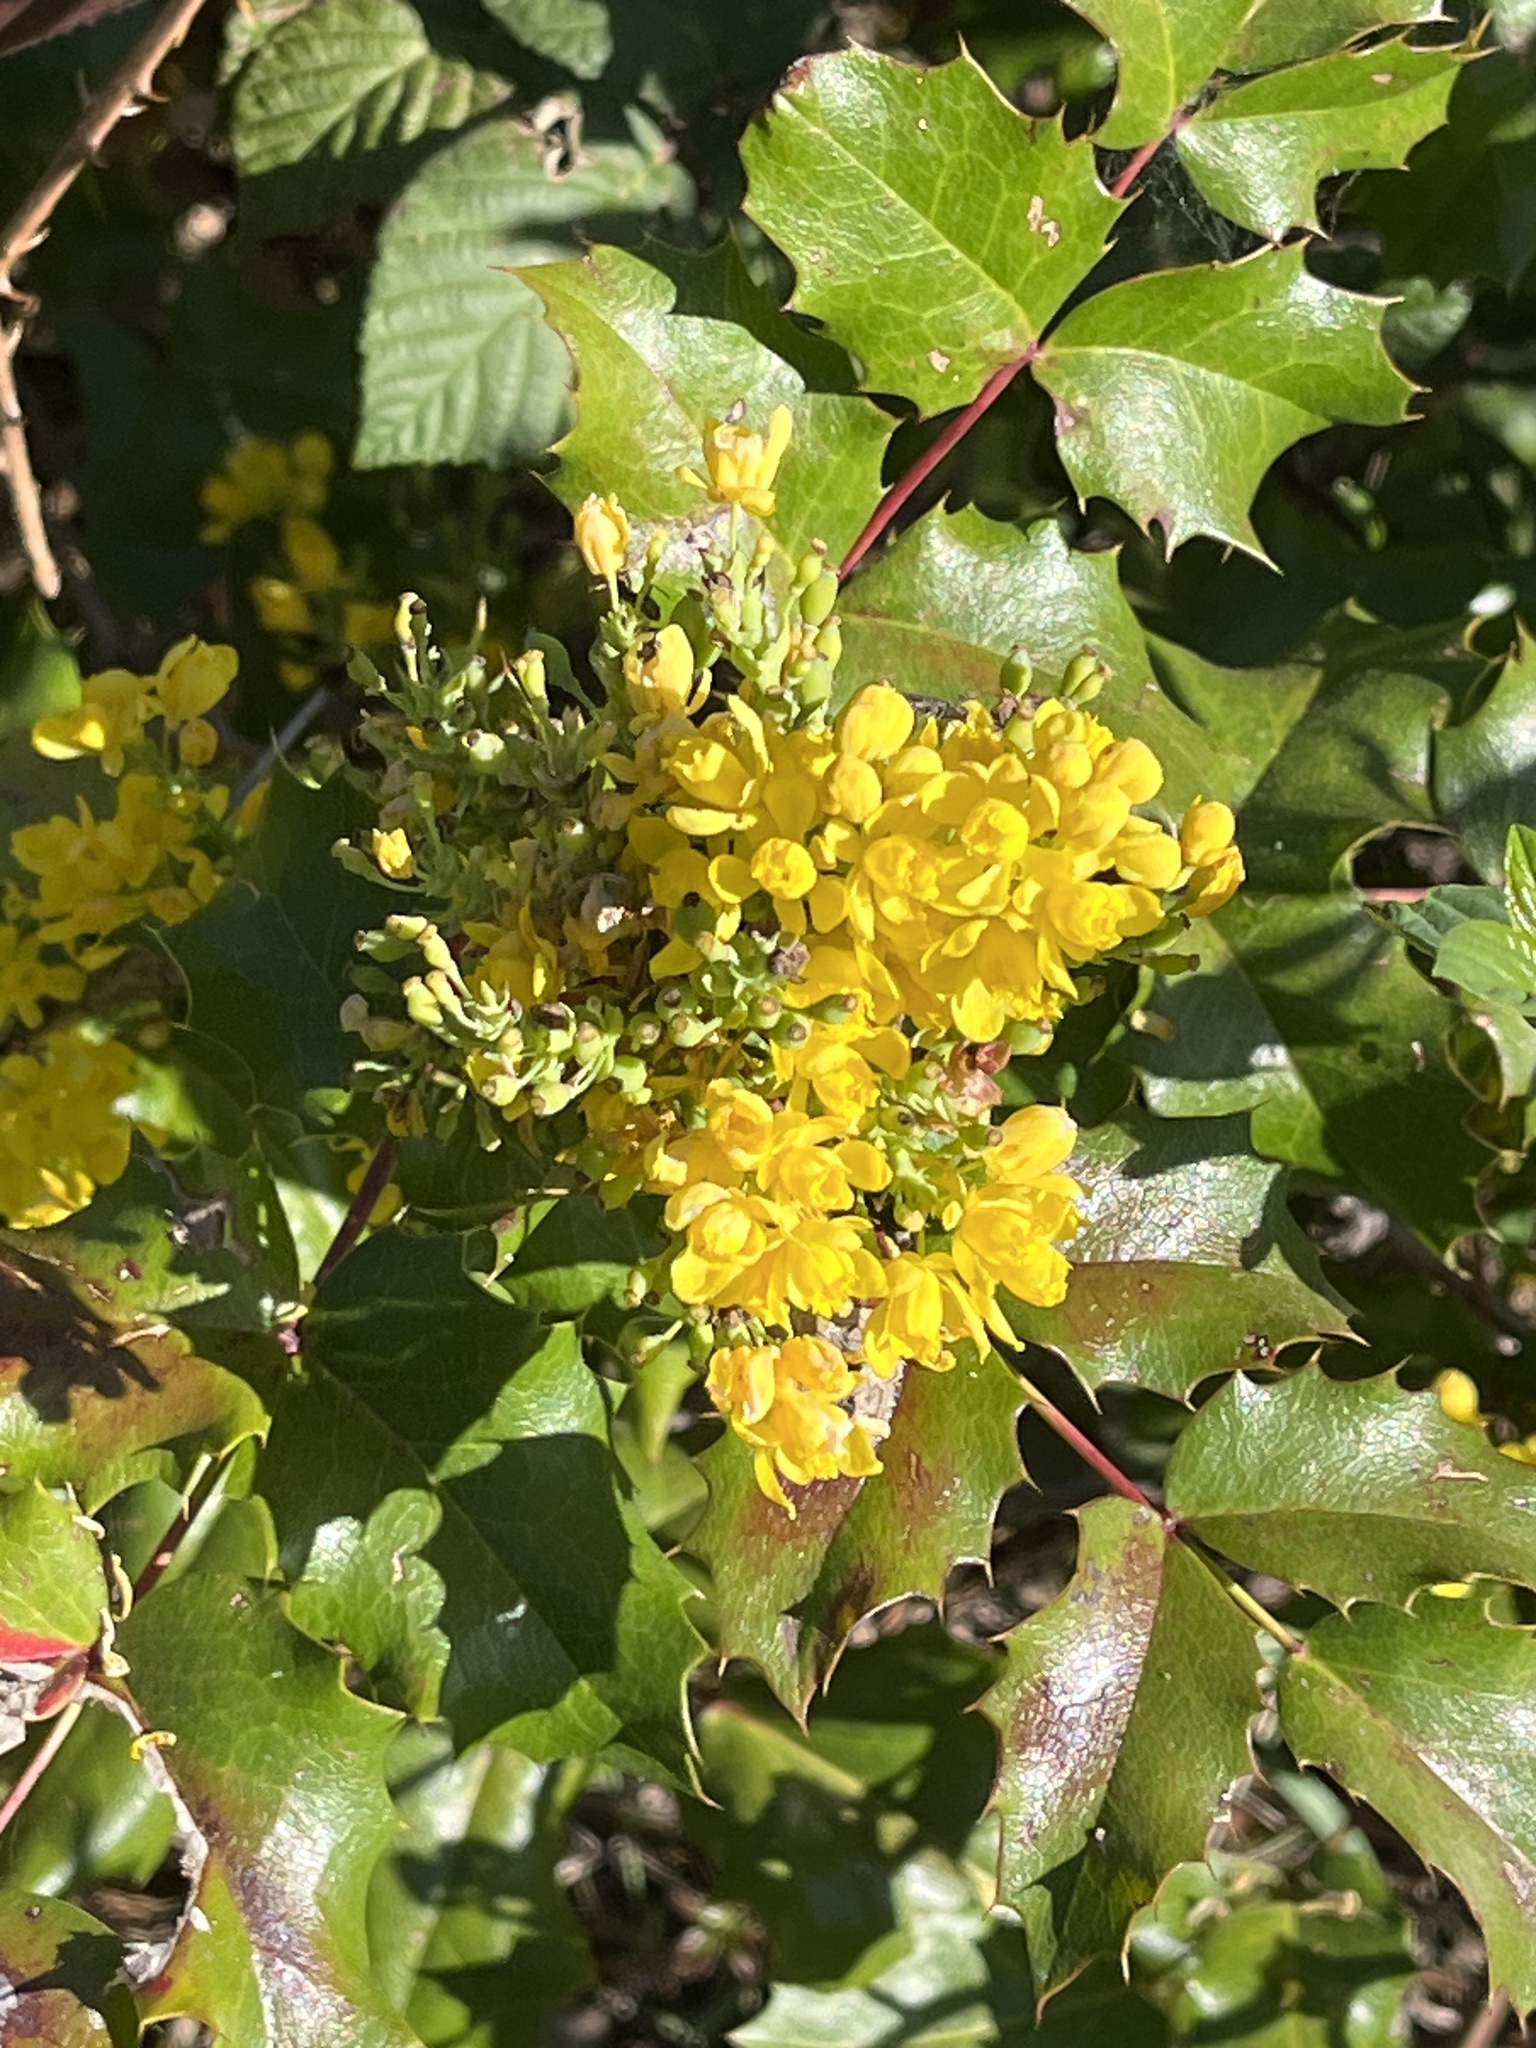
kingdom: Plantae
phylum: Tracheophyta
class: Magnoliopsida
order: Ranunculales
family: Berberidaceae
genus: Mahonia
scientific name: Mahonia aquifolium
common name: Oregon-grape
